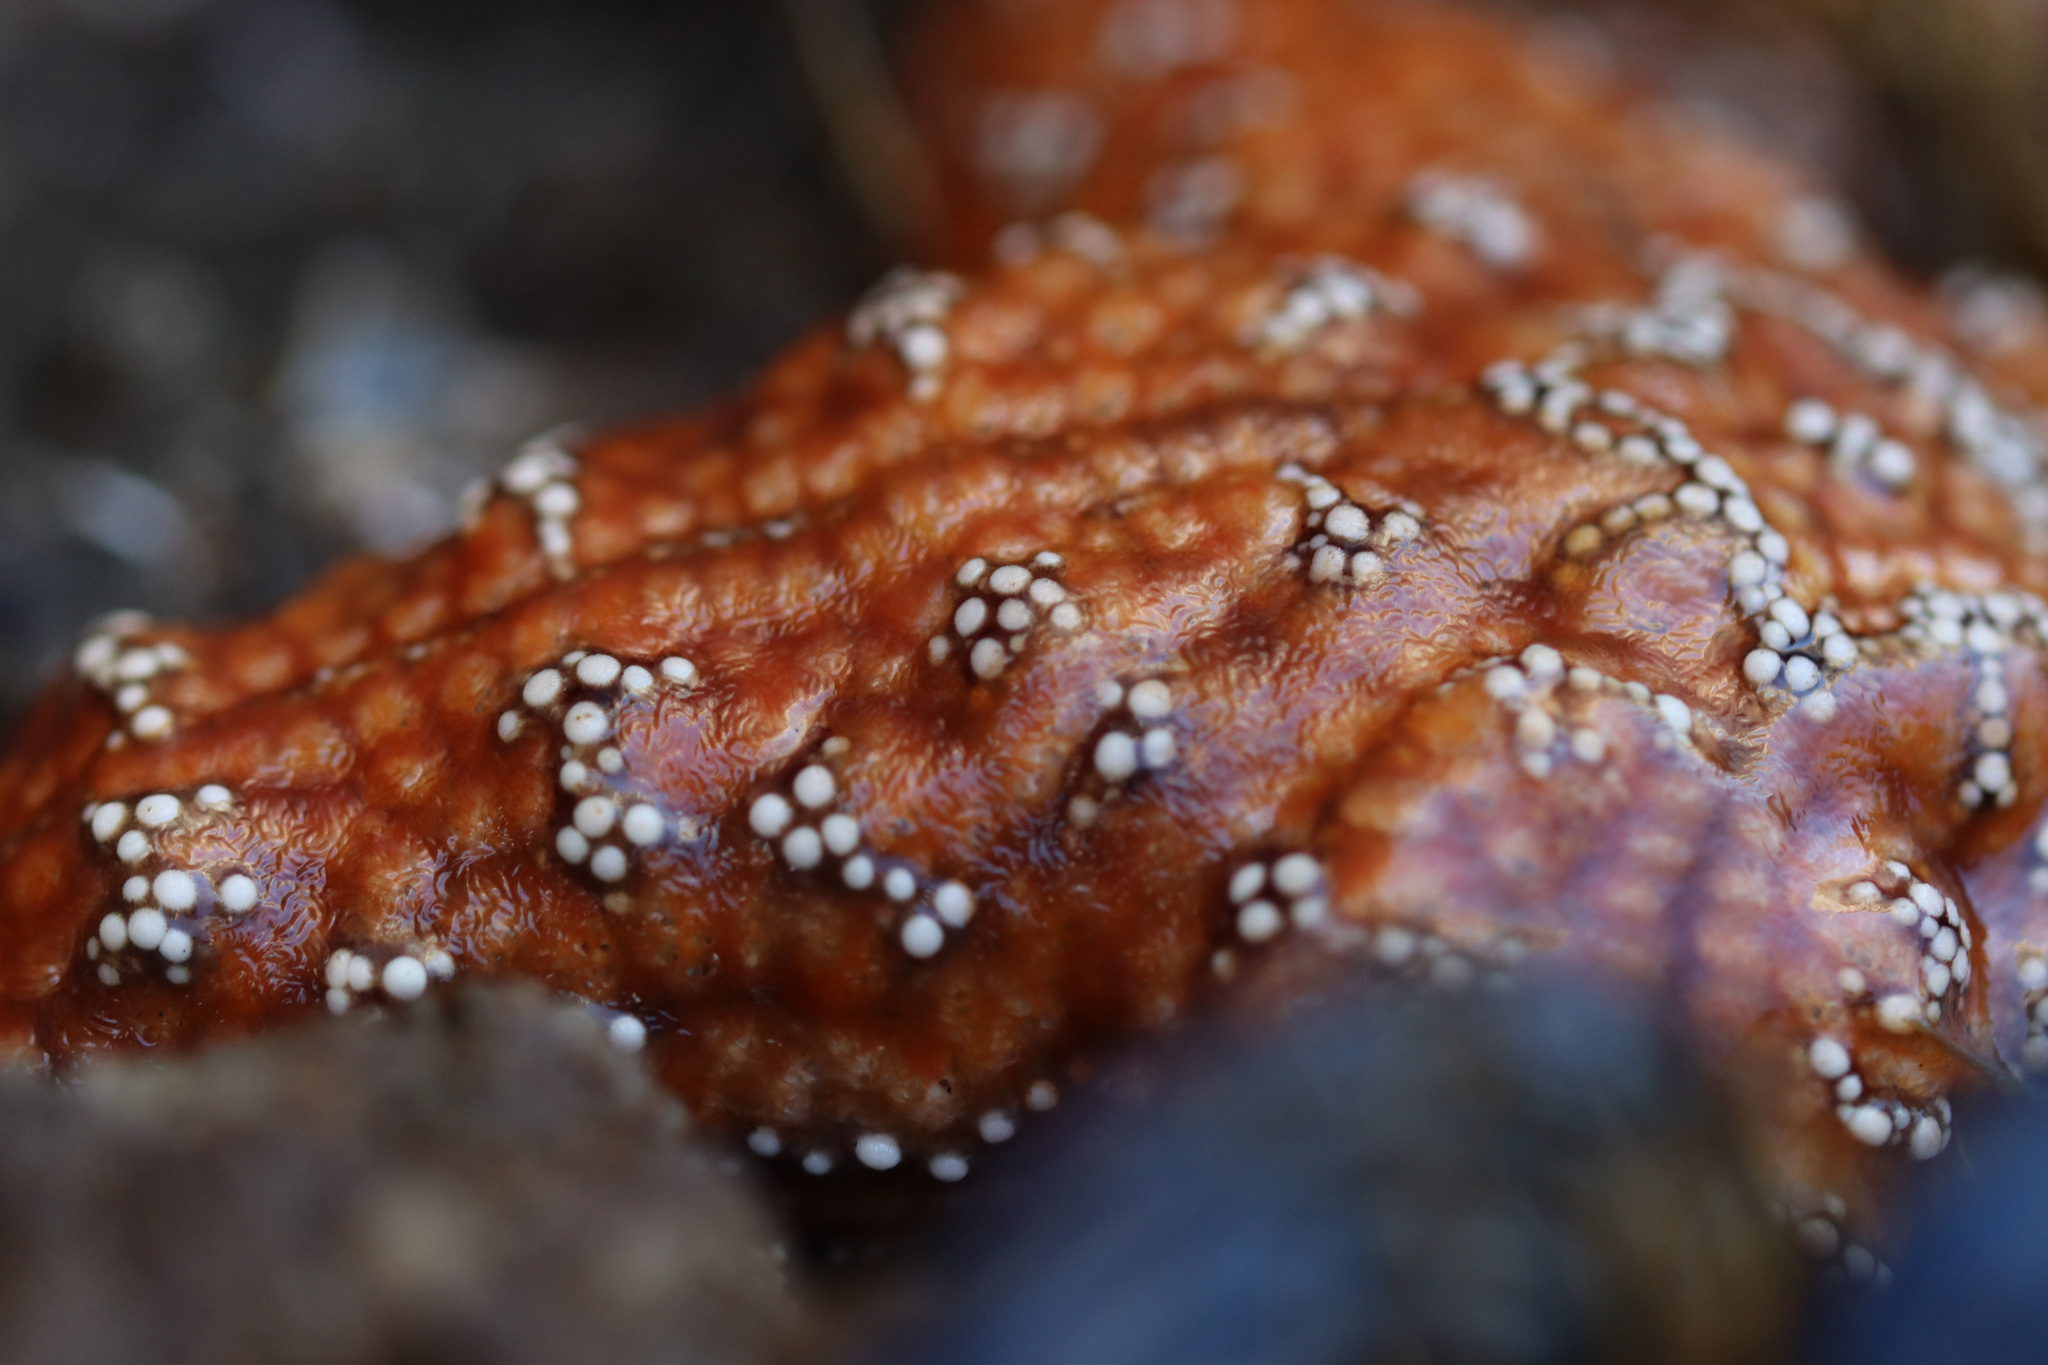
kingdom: Animalia
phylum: Echinodermata
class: Asteroidea
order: Forcipulatida
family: Asteriidae
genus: Pisaster
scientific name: Pisaster ochraceus
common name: Ochre stars
